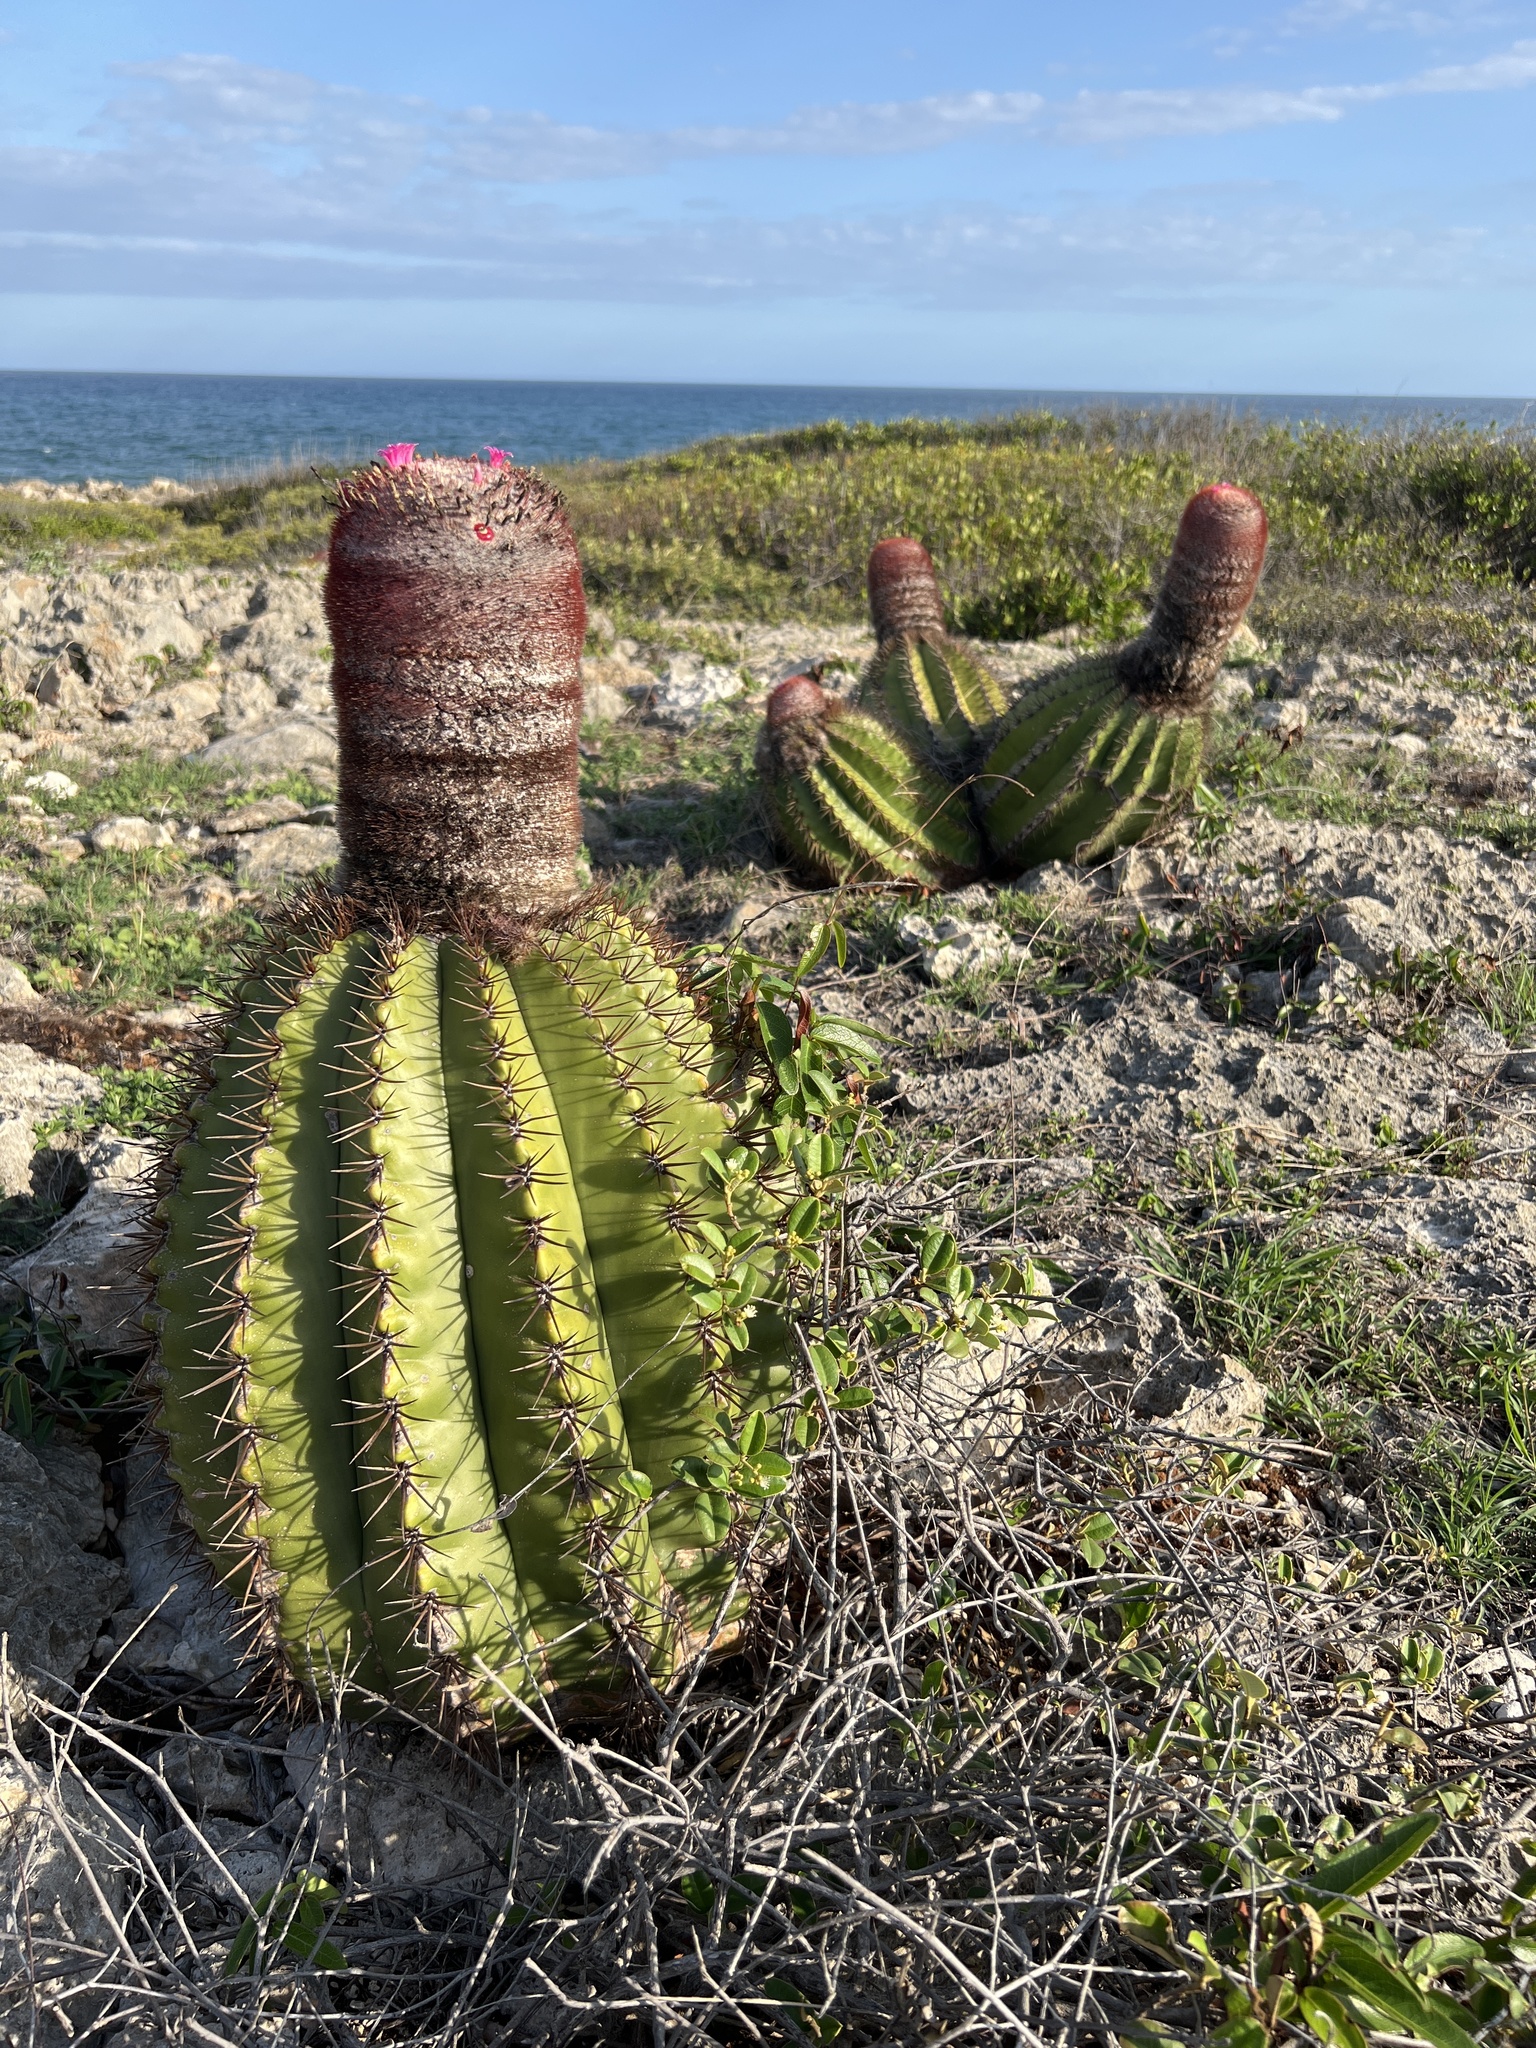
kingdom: Plantae
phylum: Tracheophyta
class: Magnoliopsida
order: Caryophyllales
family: Cactaceae
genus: Melocactus
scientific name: Melocactus intortus
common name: Barrel cactus
